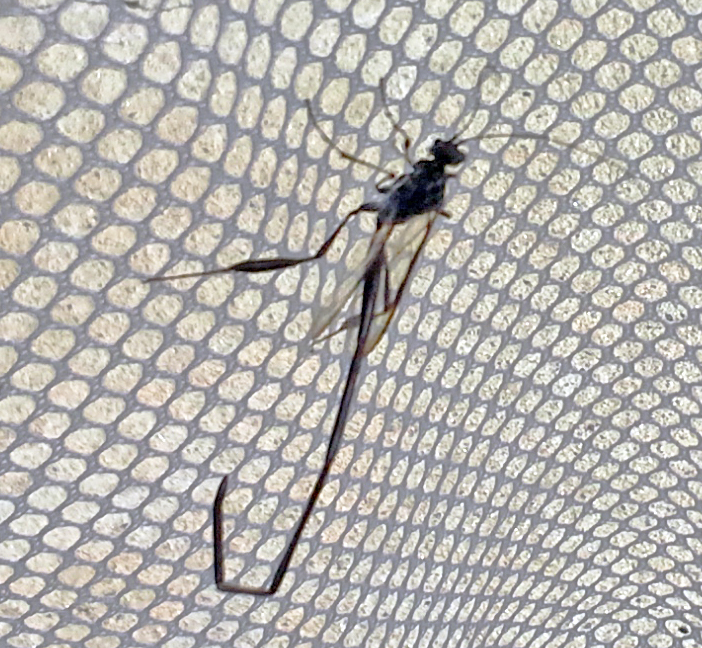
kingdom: Animalia
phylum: Arthropoda
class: Insecta
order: Hymenoptera
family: Pelecinidae
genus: Pelecinus
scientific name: Pelecinus polyturator
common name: American pelecinid wasp
